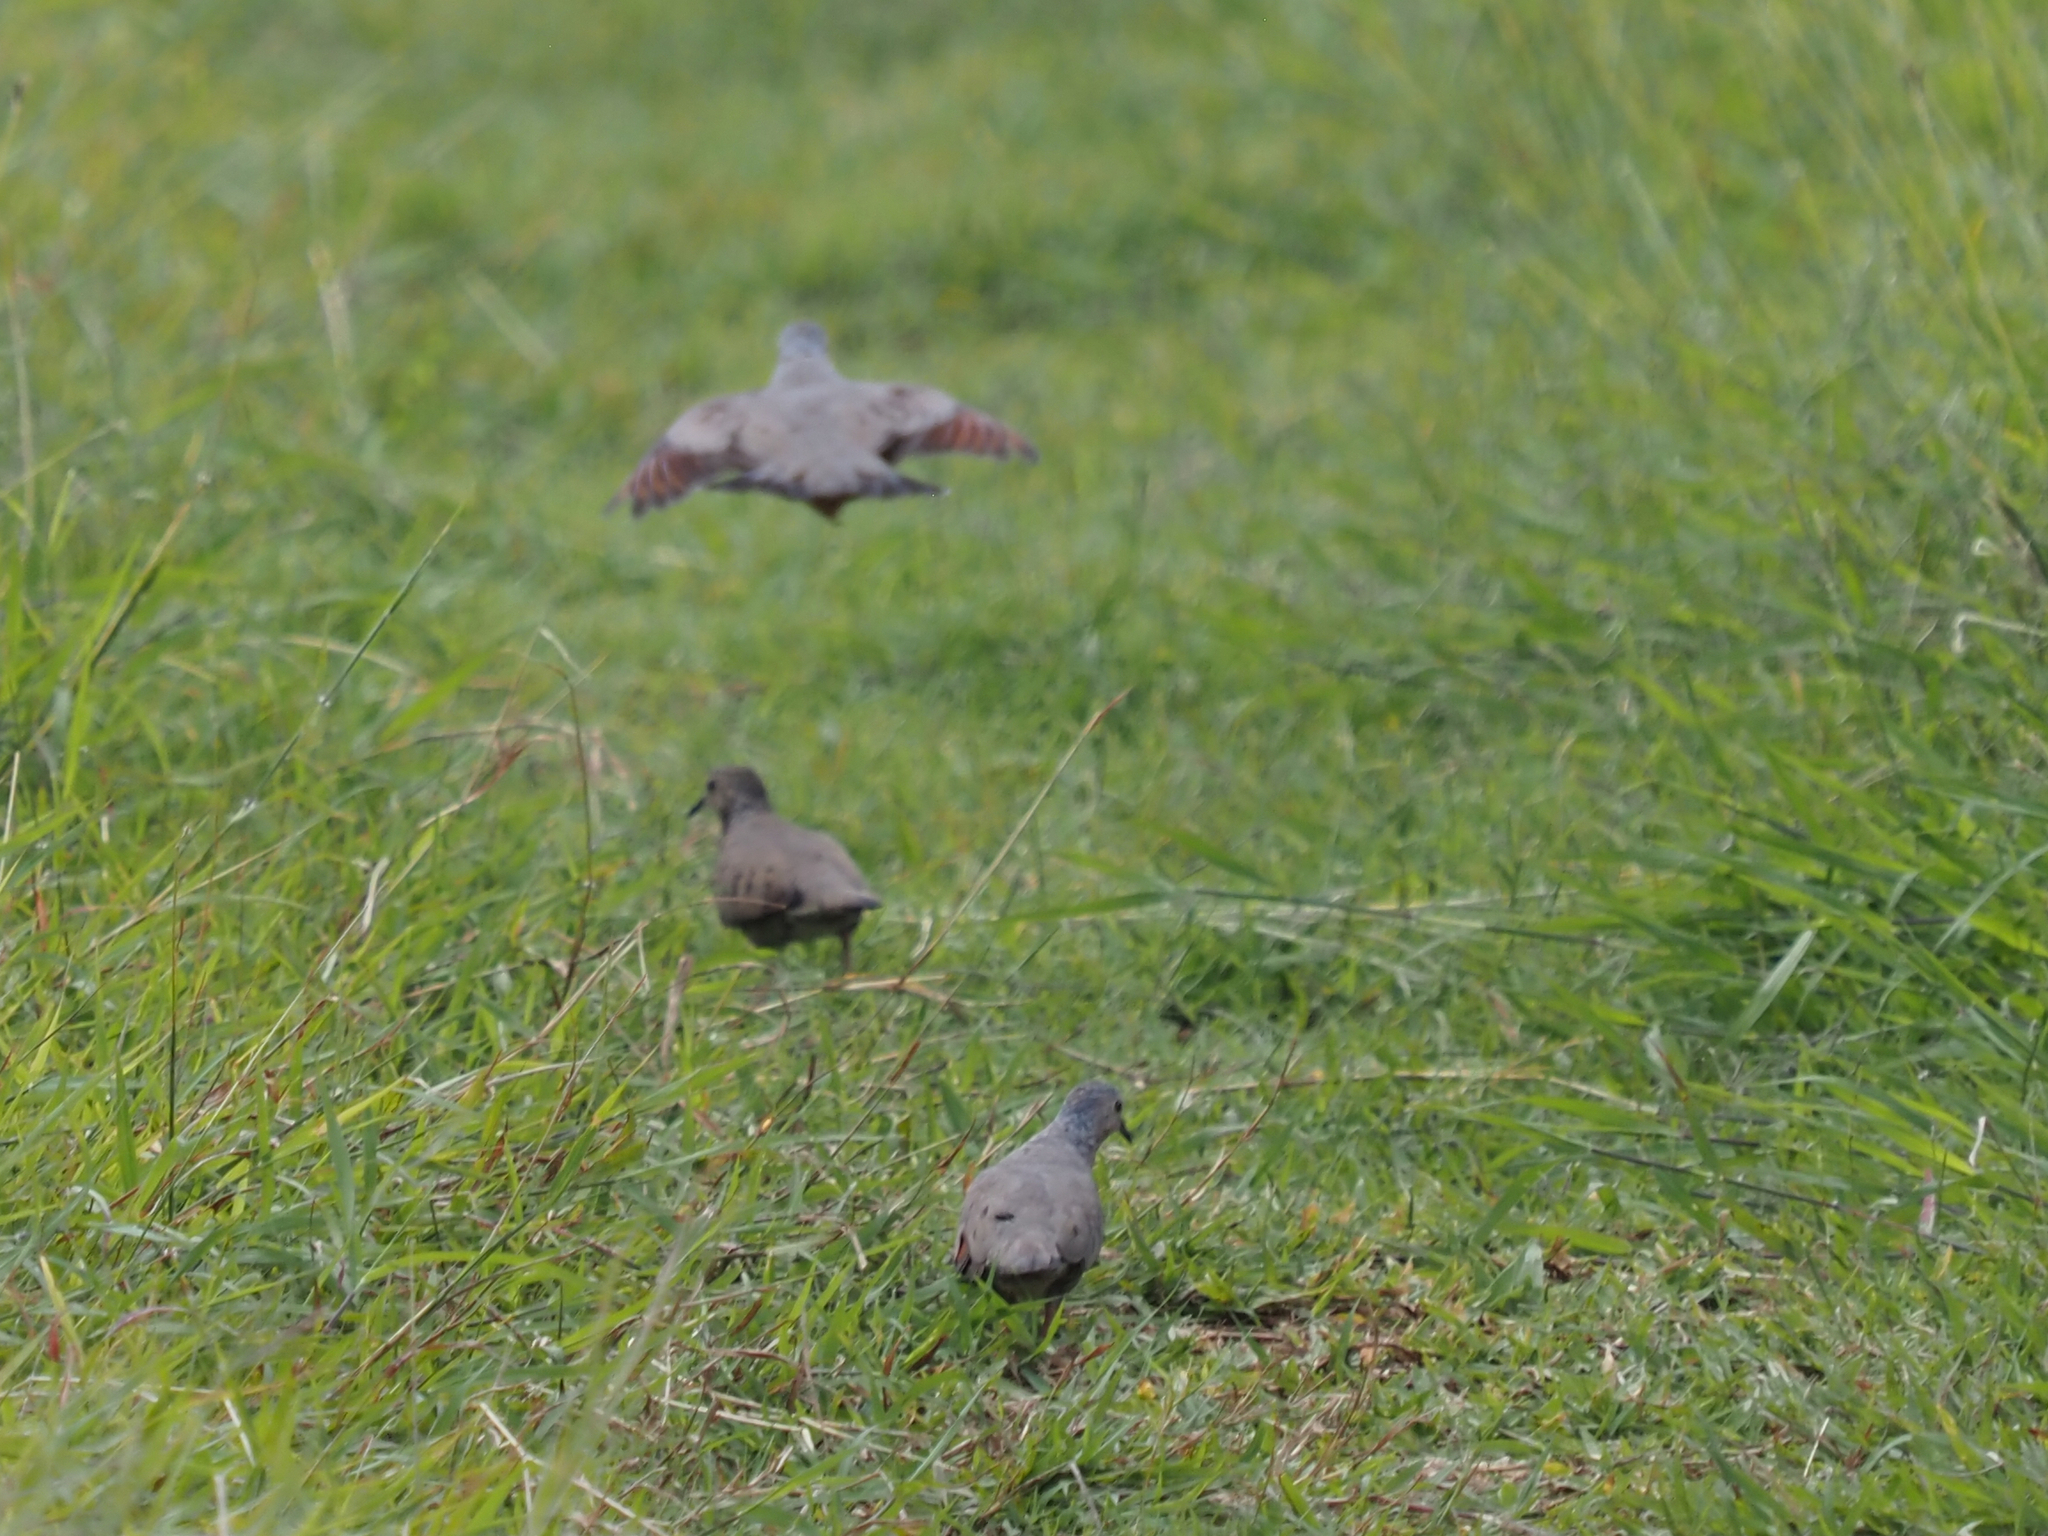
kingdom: Animalia
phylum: Chordata
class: Aves
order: Columbiformes
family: Columbidae
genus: Columbina
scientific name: Columbina passerina
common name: Common ground-dove
